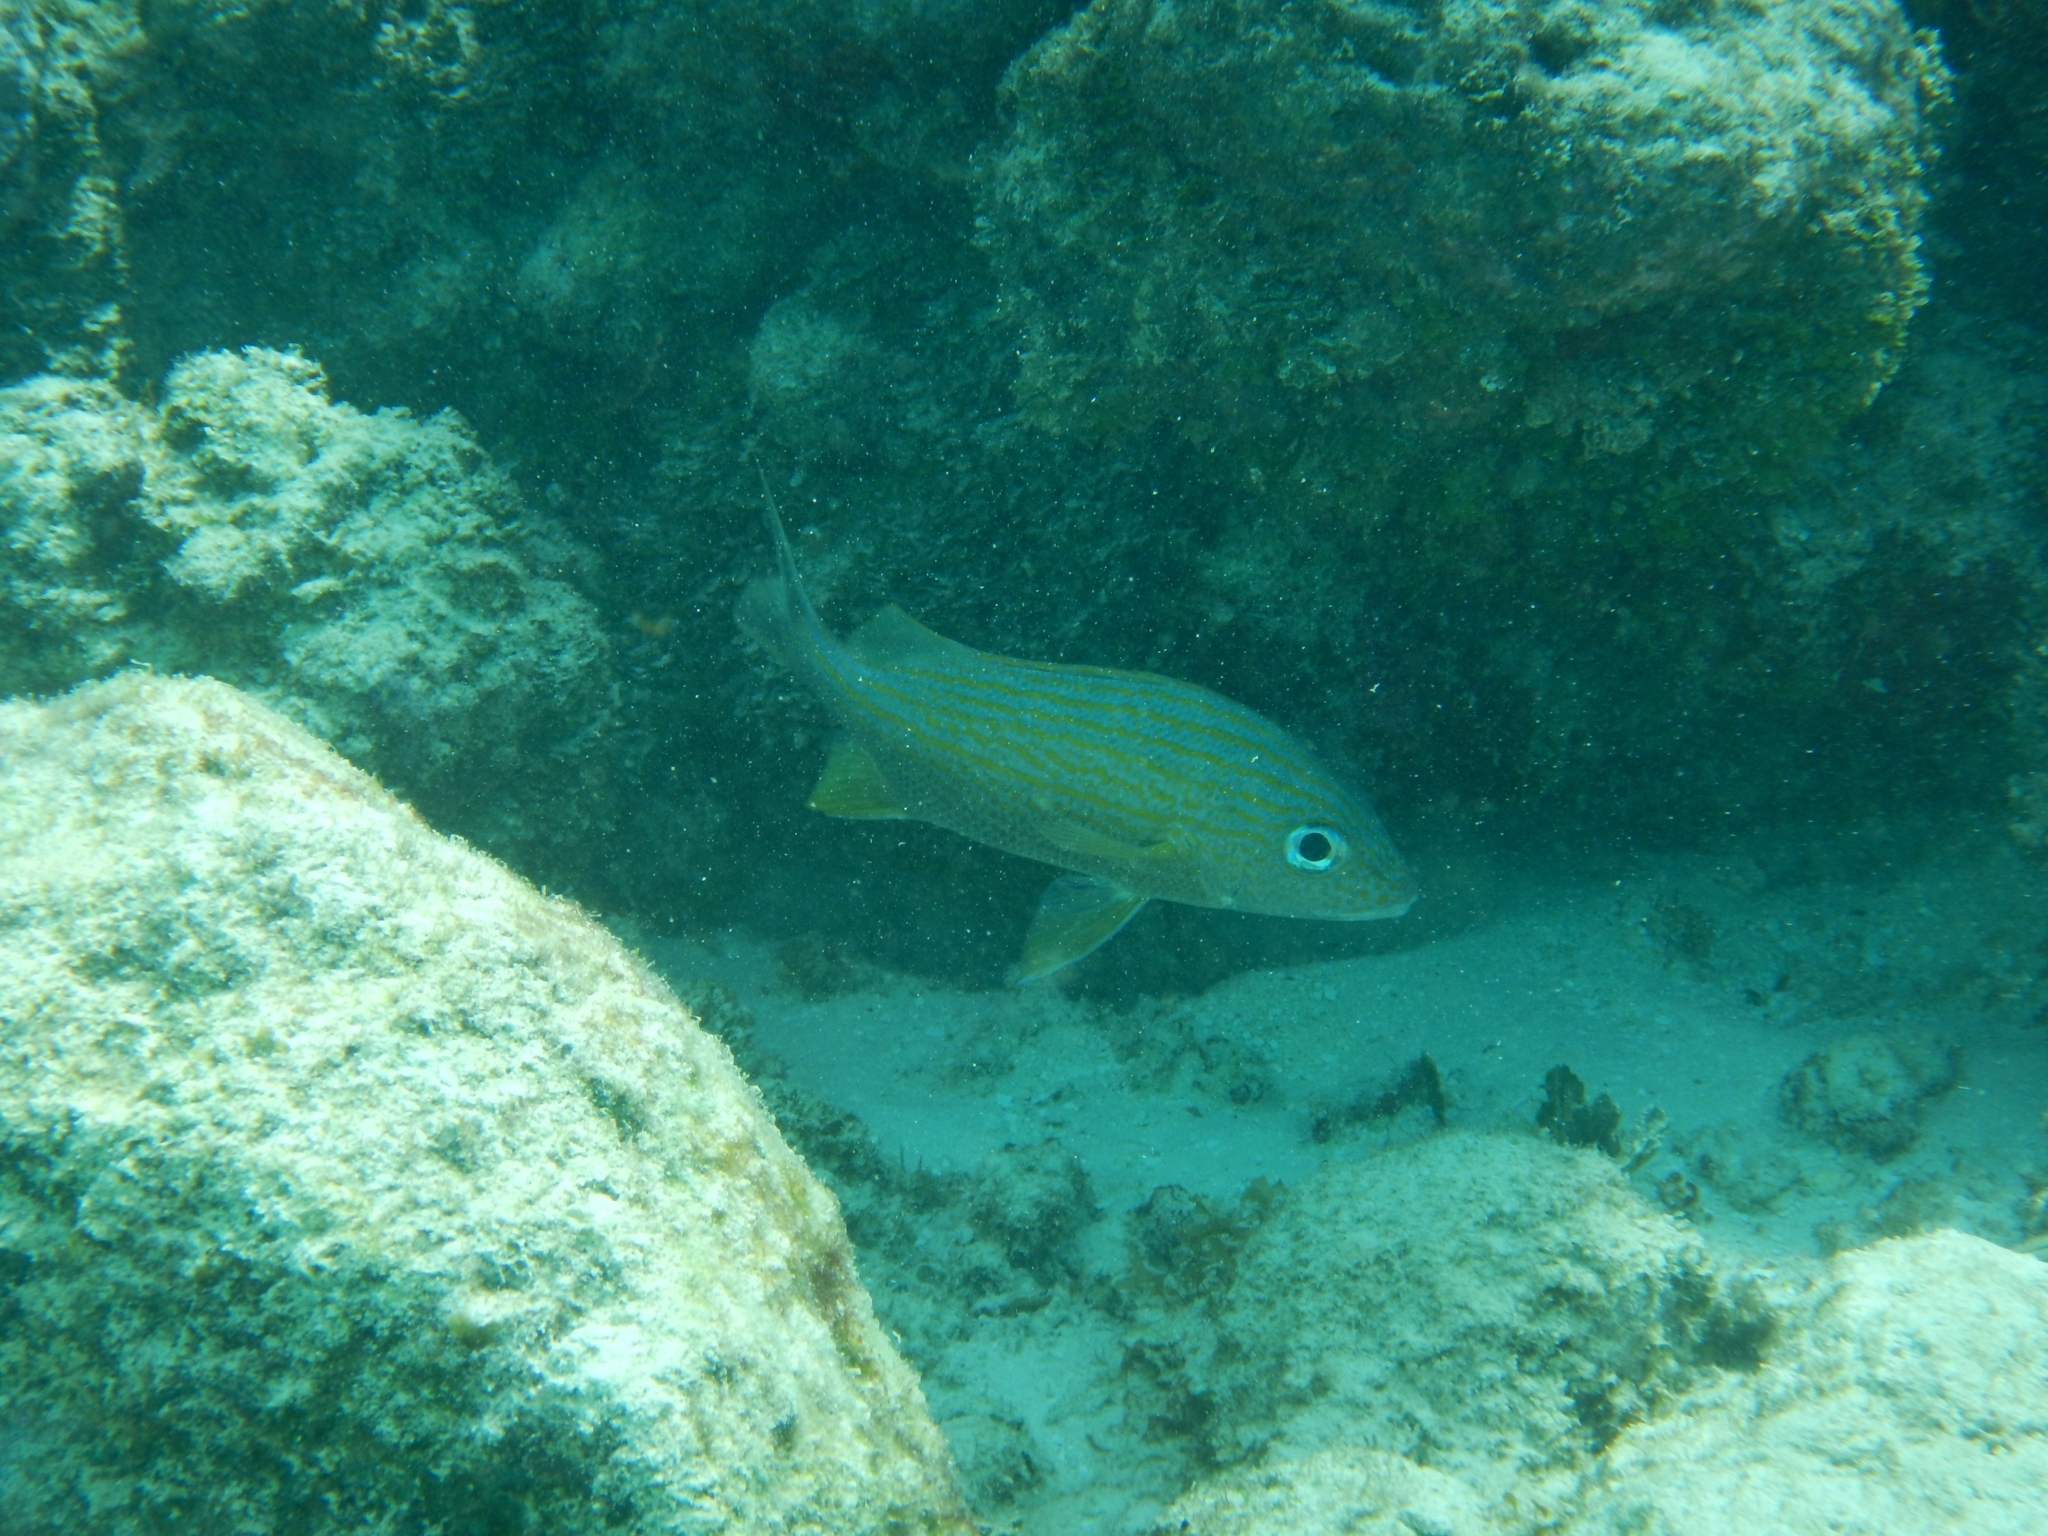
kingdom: Animalia
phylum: Chordata
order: Perciformes
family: Haemulidae
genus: Haemulon
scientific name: Haemulon flavolineatum
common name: French grunt
